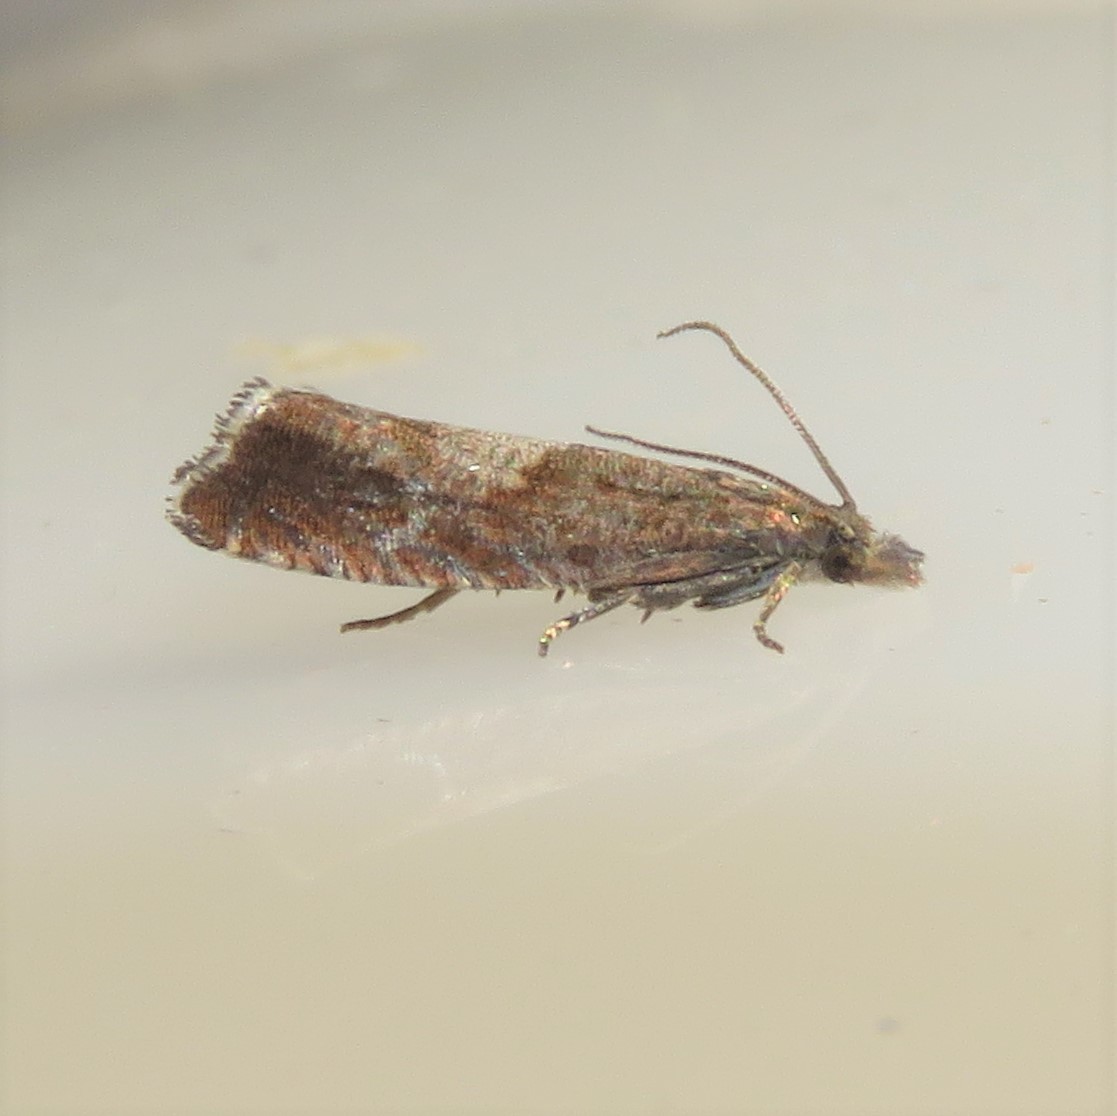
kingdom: Animalia
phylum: Arthropoda
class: Insecta
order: Lepidoptera
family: Tortricidae
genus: Dichrorampha
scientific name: Dichrorampha acuminatana
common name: Sharp-winged drill
